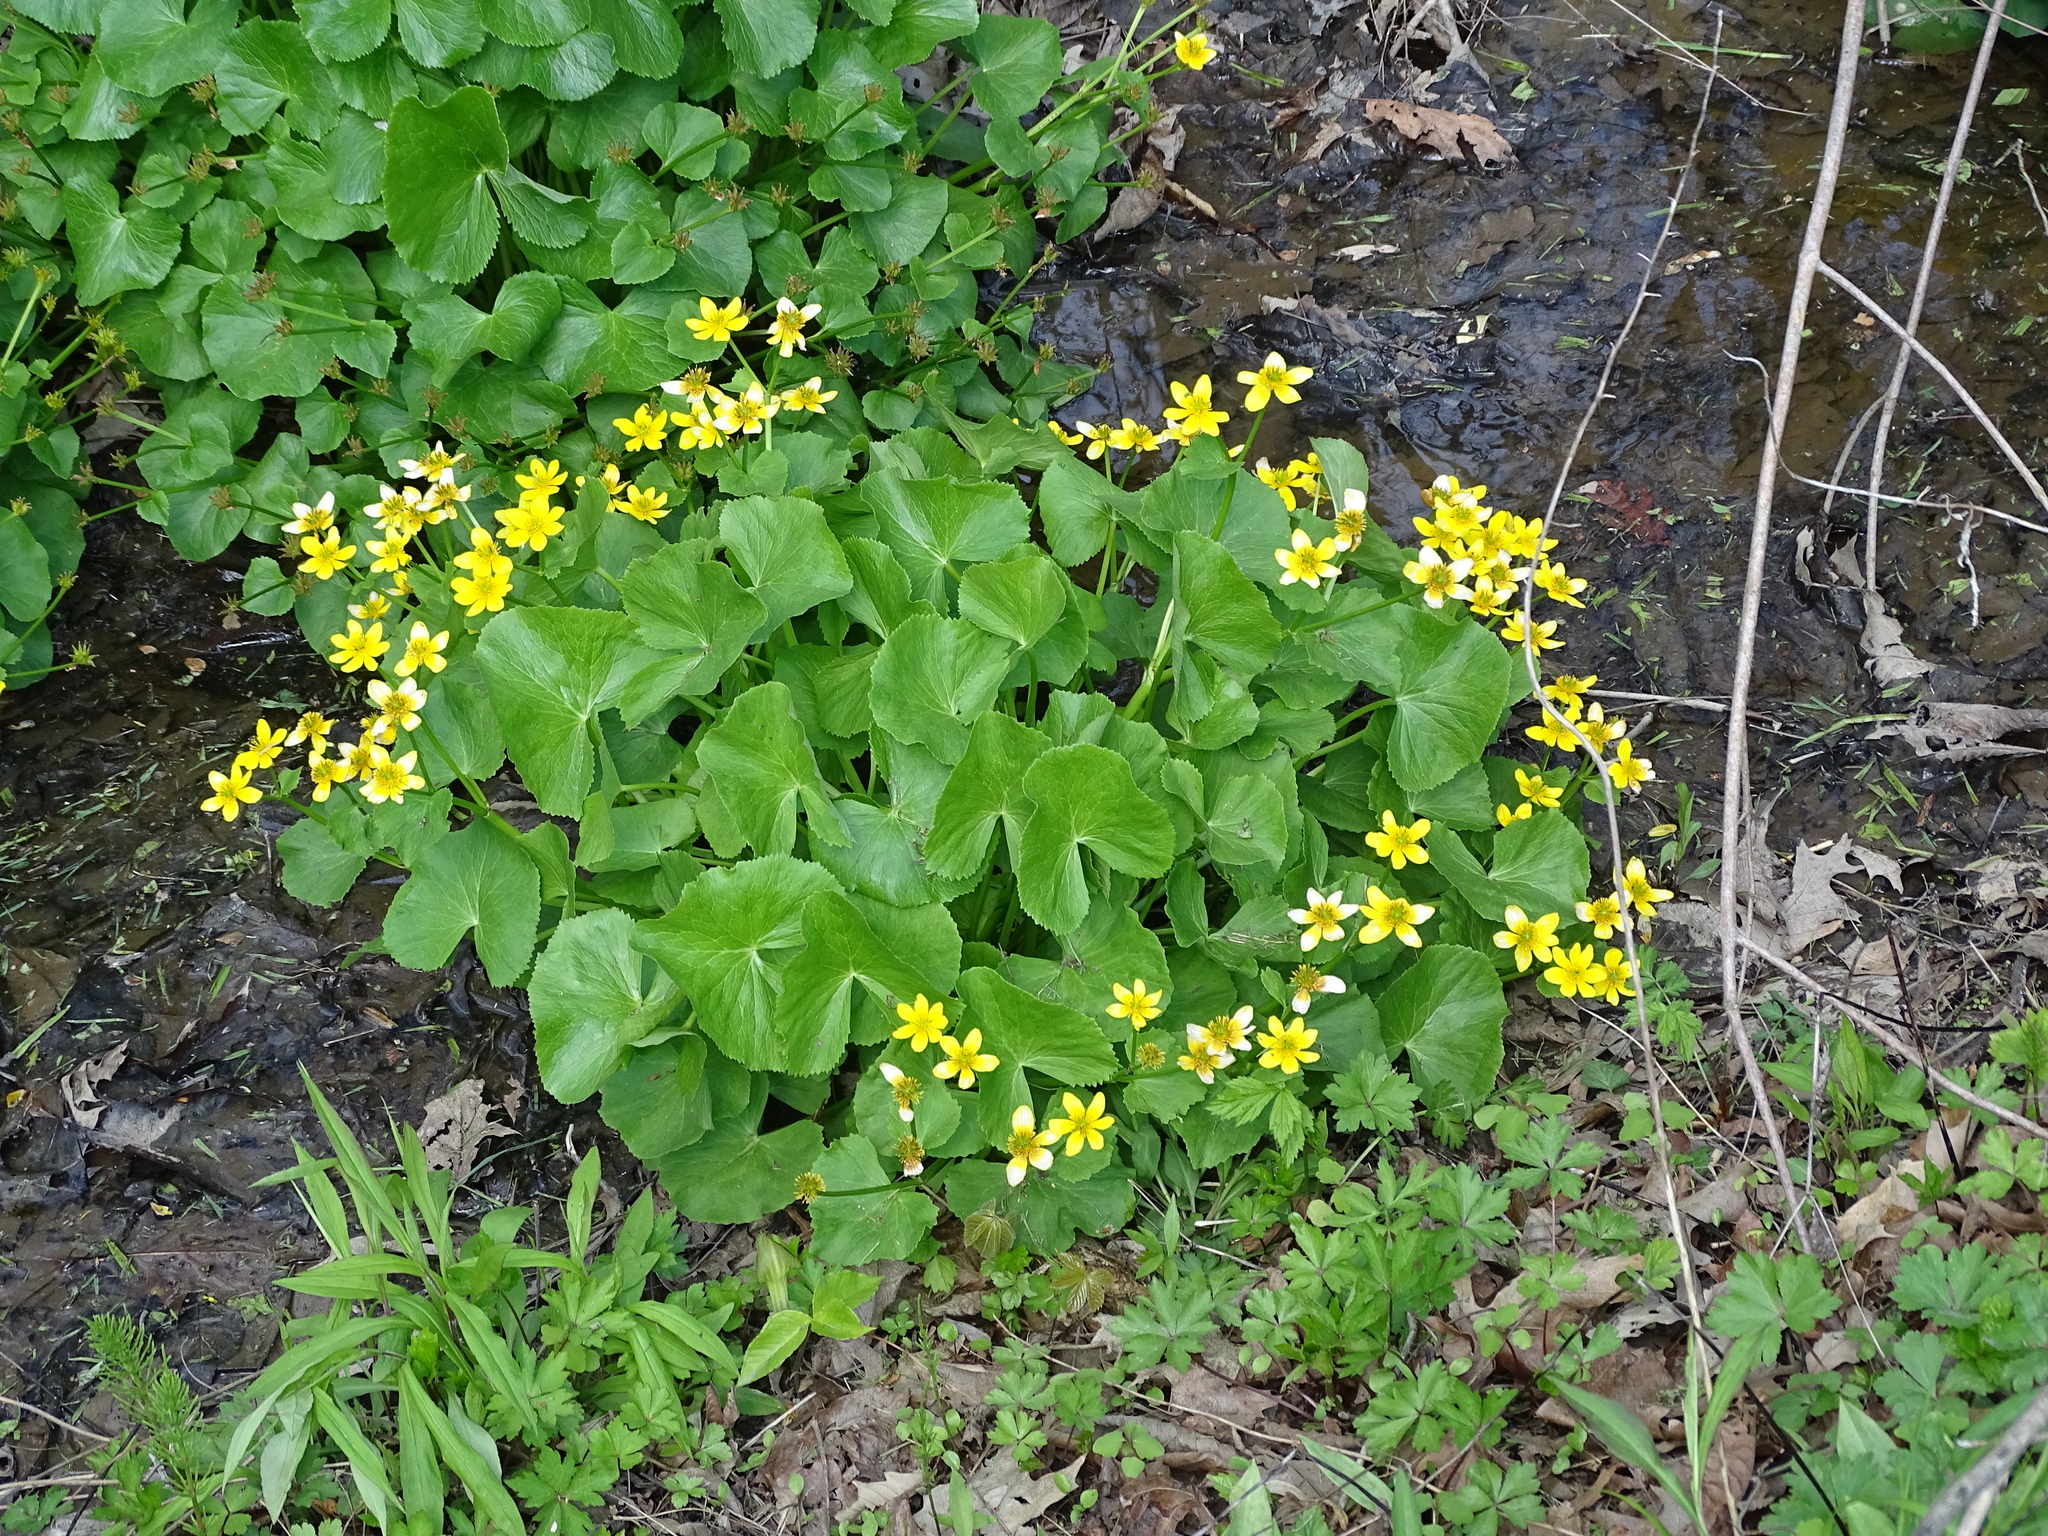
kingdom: Plantae
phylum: Tracheophyta
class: Magnoliopsida
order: Ranunculales
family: Ranunculaceae
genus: Caltha
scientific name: Caltha palustris
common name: Marsh marigold
